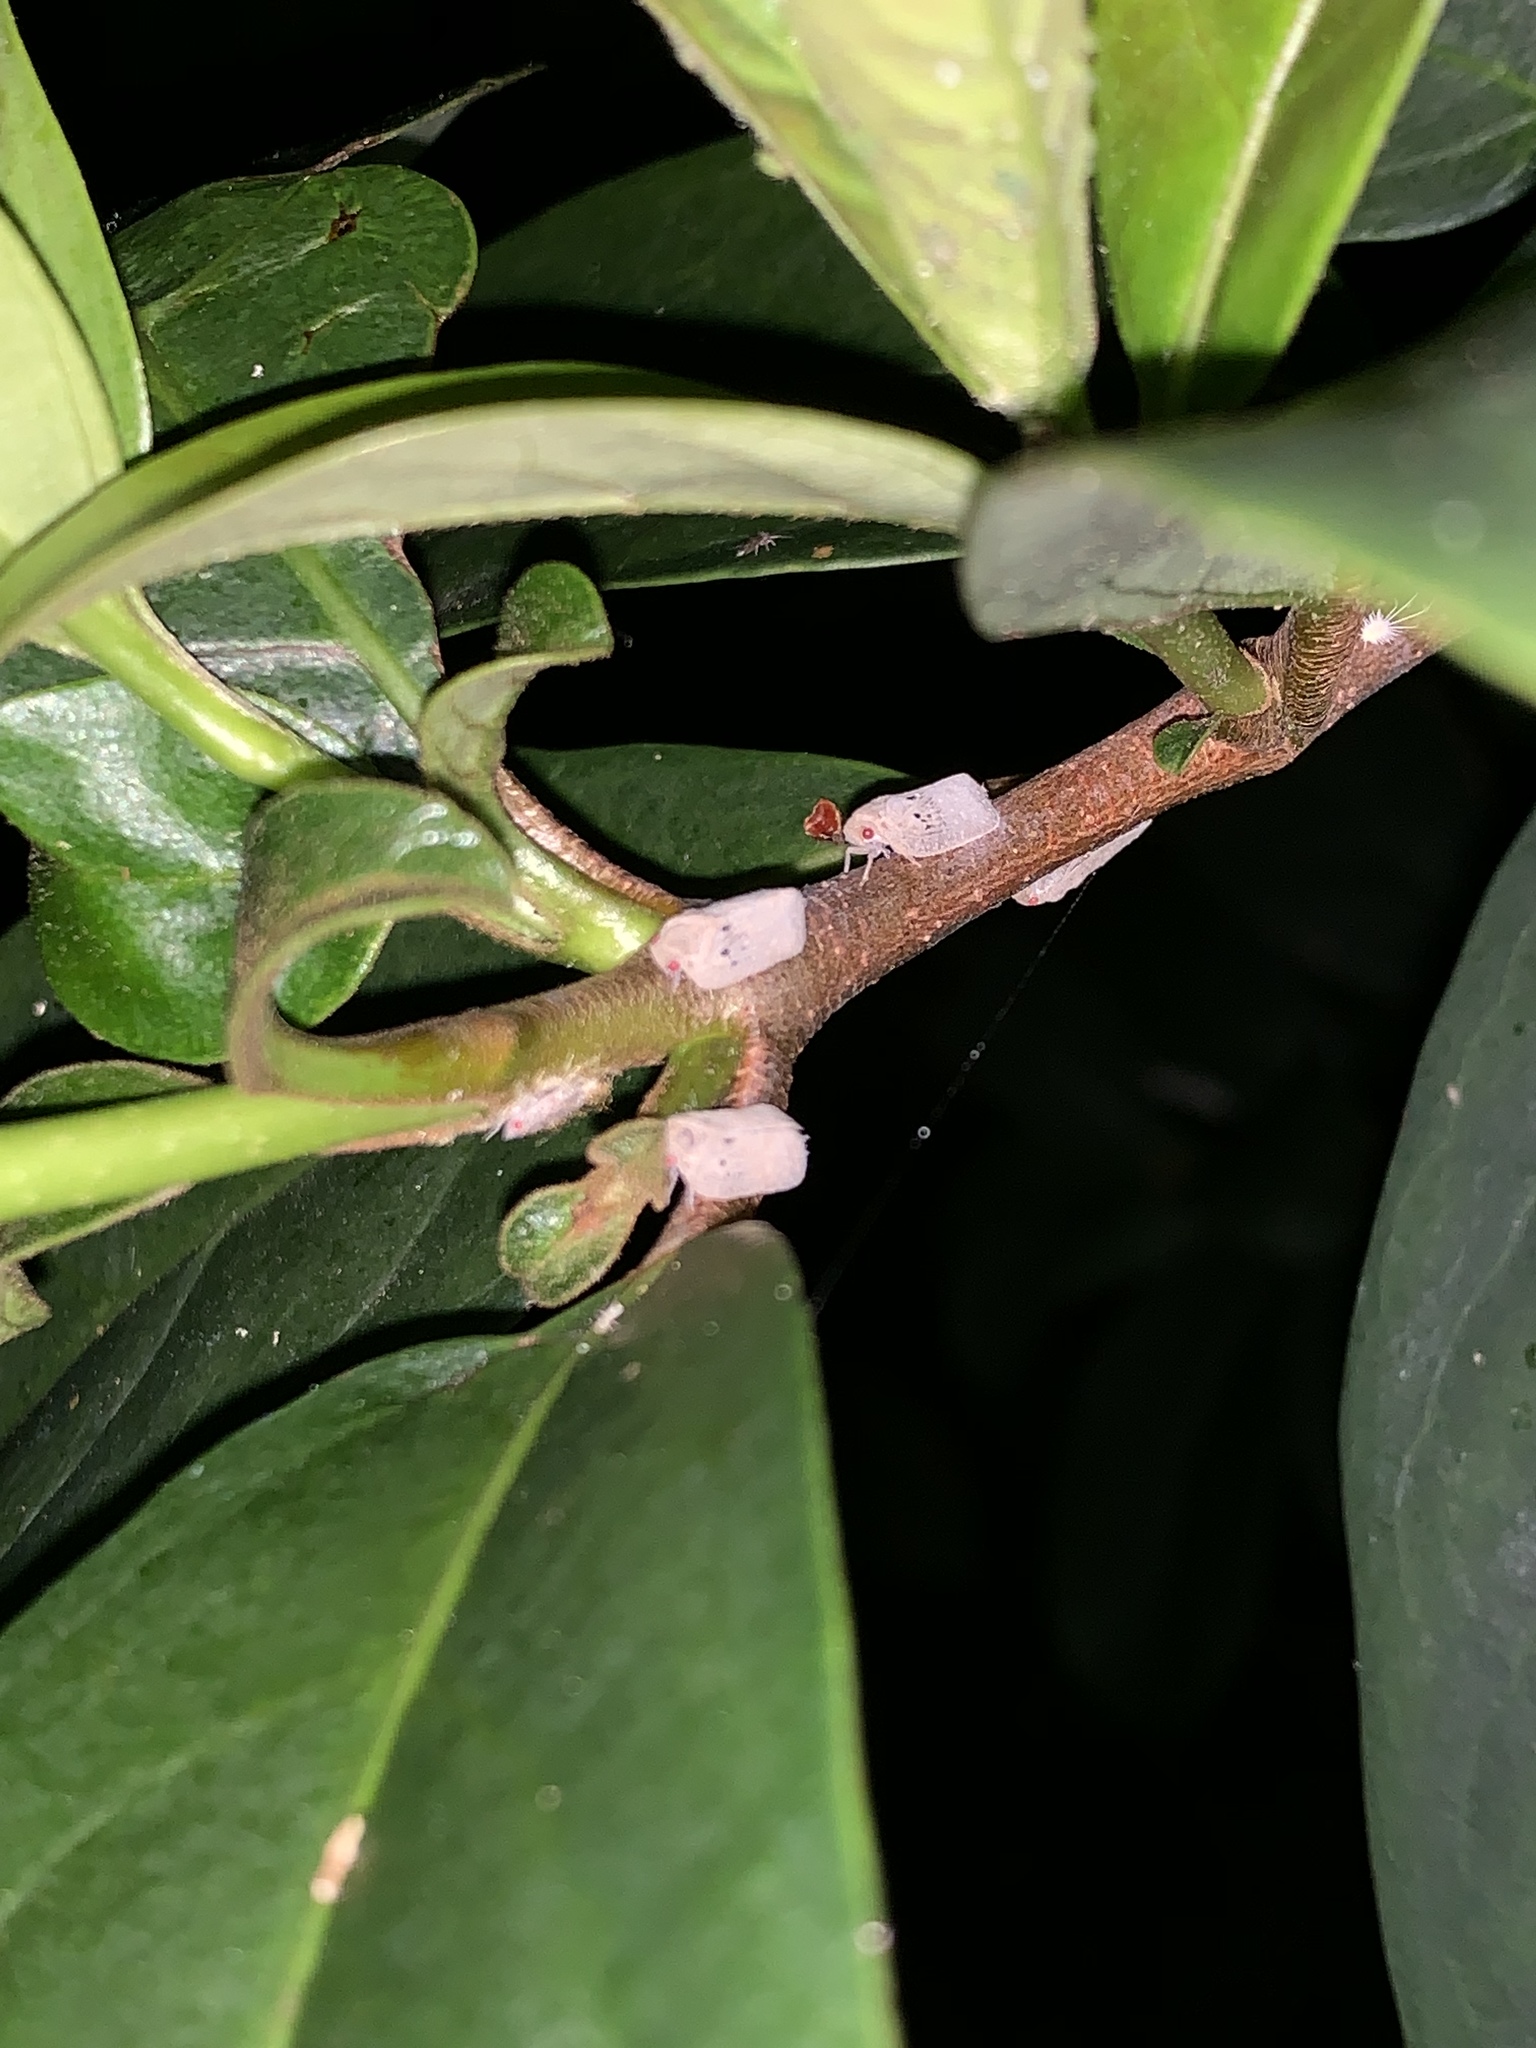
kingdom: Animalia
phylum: Arthropoda
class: Insecta
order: Hemiptera
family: Flatidae
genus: Melormenis
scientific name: Melormenis basalis
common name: Puerto rican planthopper
